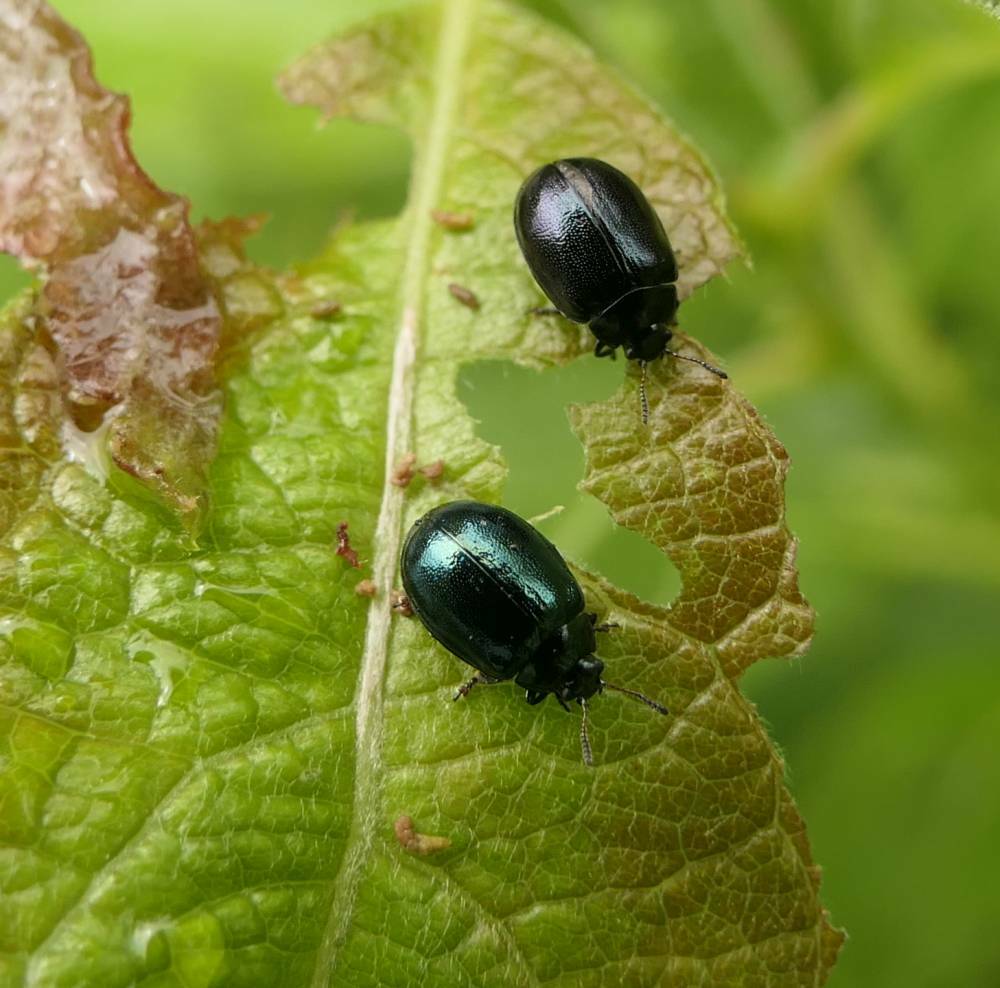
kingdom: Animalia
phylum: Arthropoda
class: Insecta
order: Coleoptera
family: Chrysomelidae
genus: Plagiodera
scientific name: Plagiodera versicolora
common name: Imported willow leaf beetle
